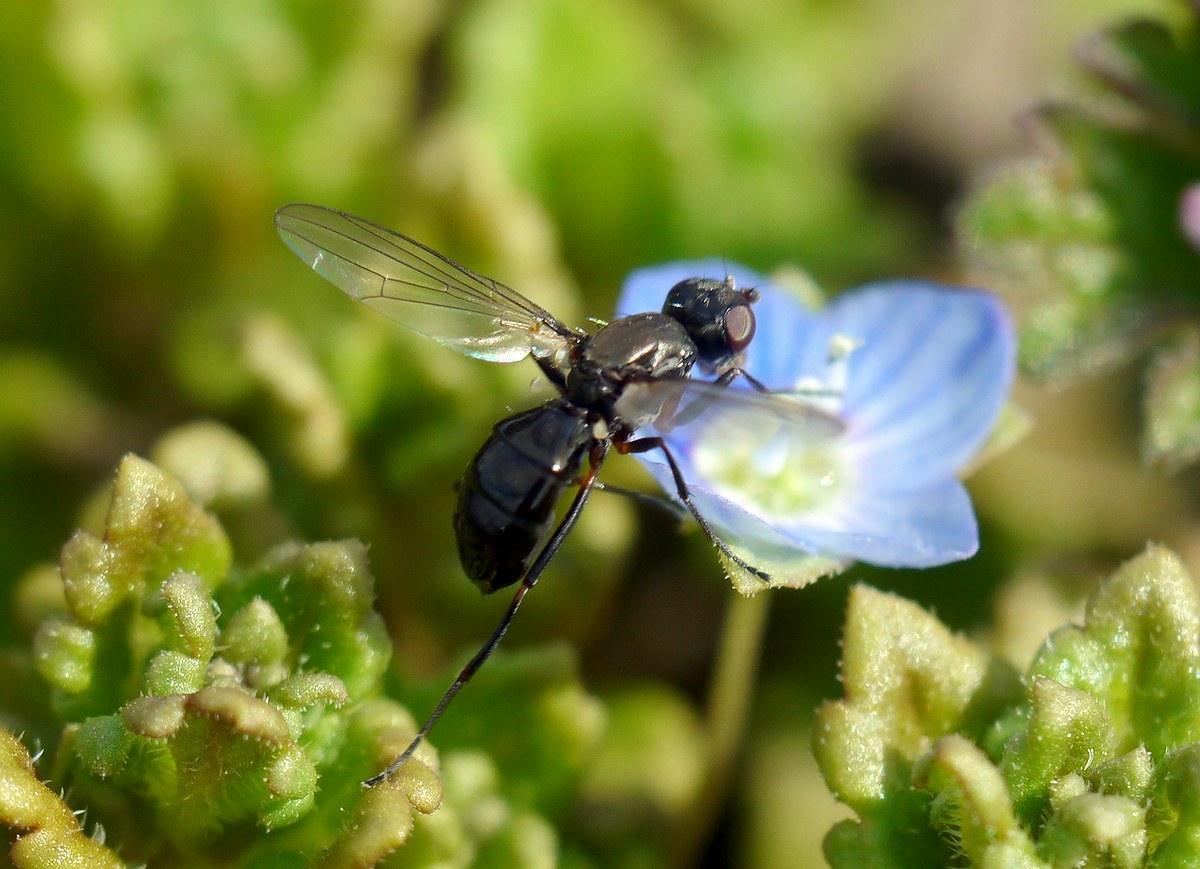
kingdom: Animalia
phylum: Arthropoda
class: Insecta
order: Diptera
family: Sepsidae
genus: Nemopoda
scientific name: Nemopoda nitidula
